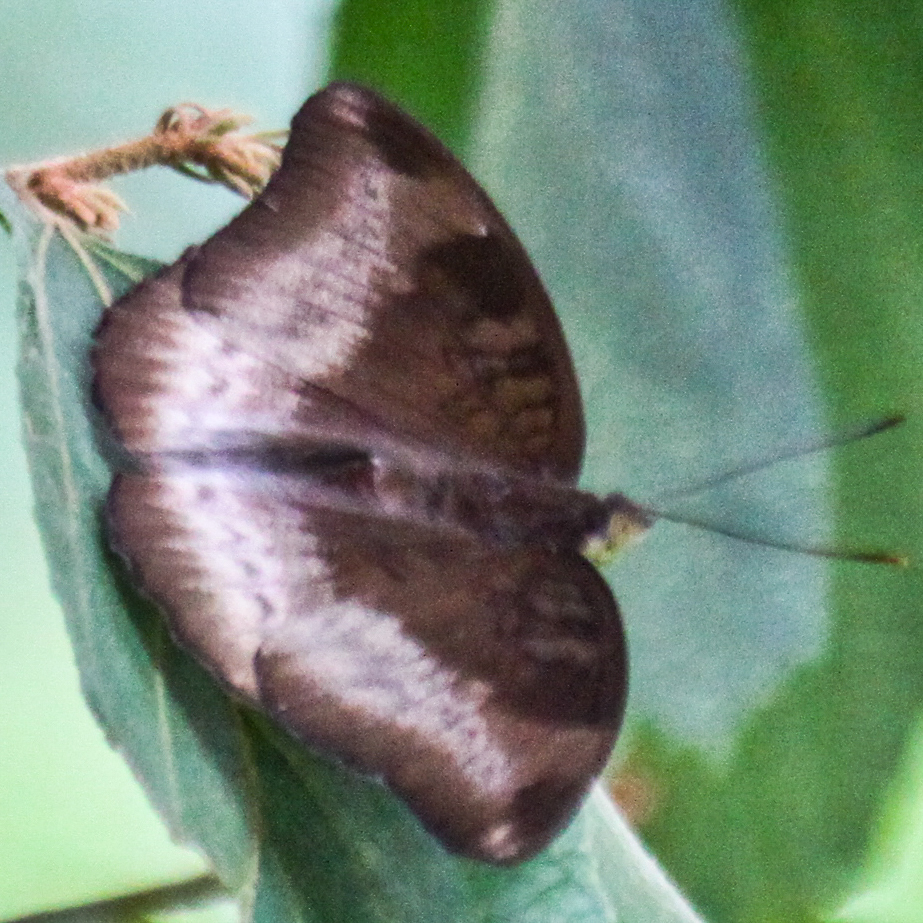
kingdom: Animalia
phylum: Arthropoda
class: Insecta
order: Lepidoptera
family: Nymphalidae
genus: Euthalia
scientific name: Euthalia monina
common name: Powdered baron
